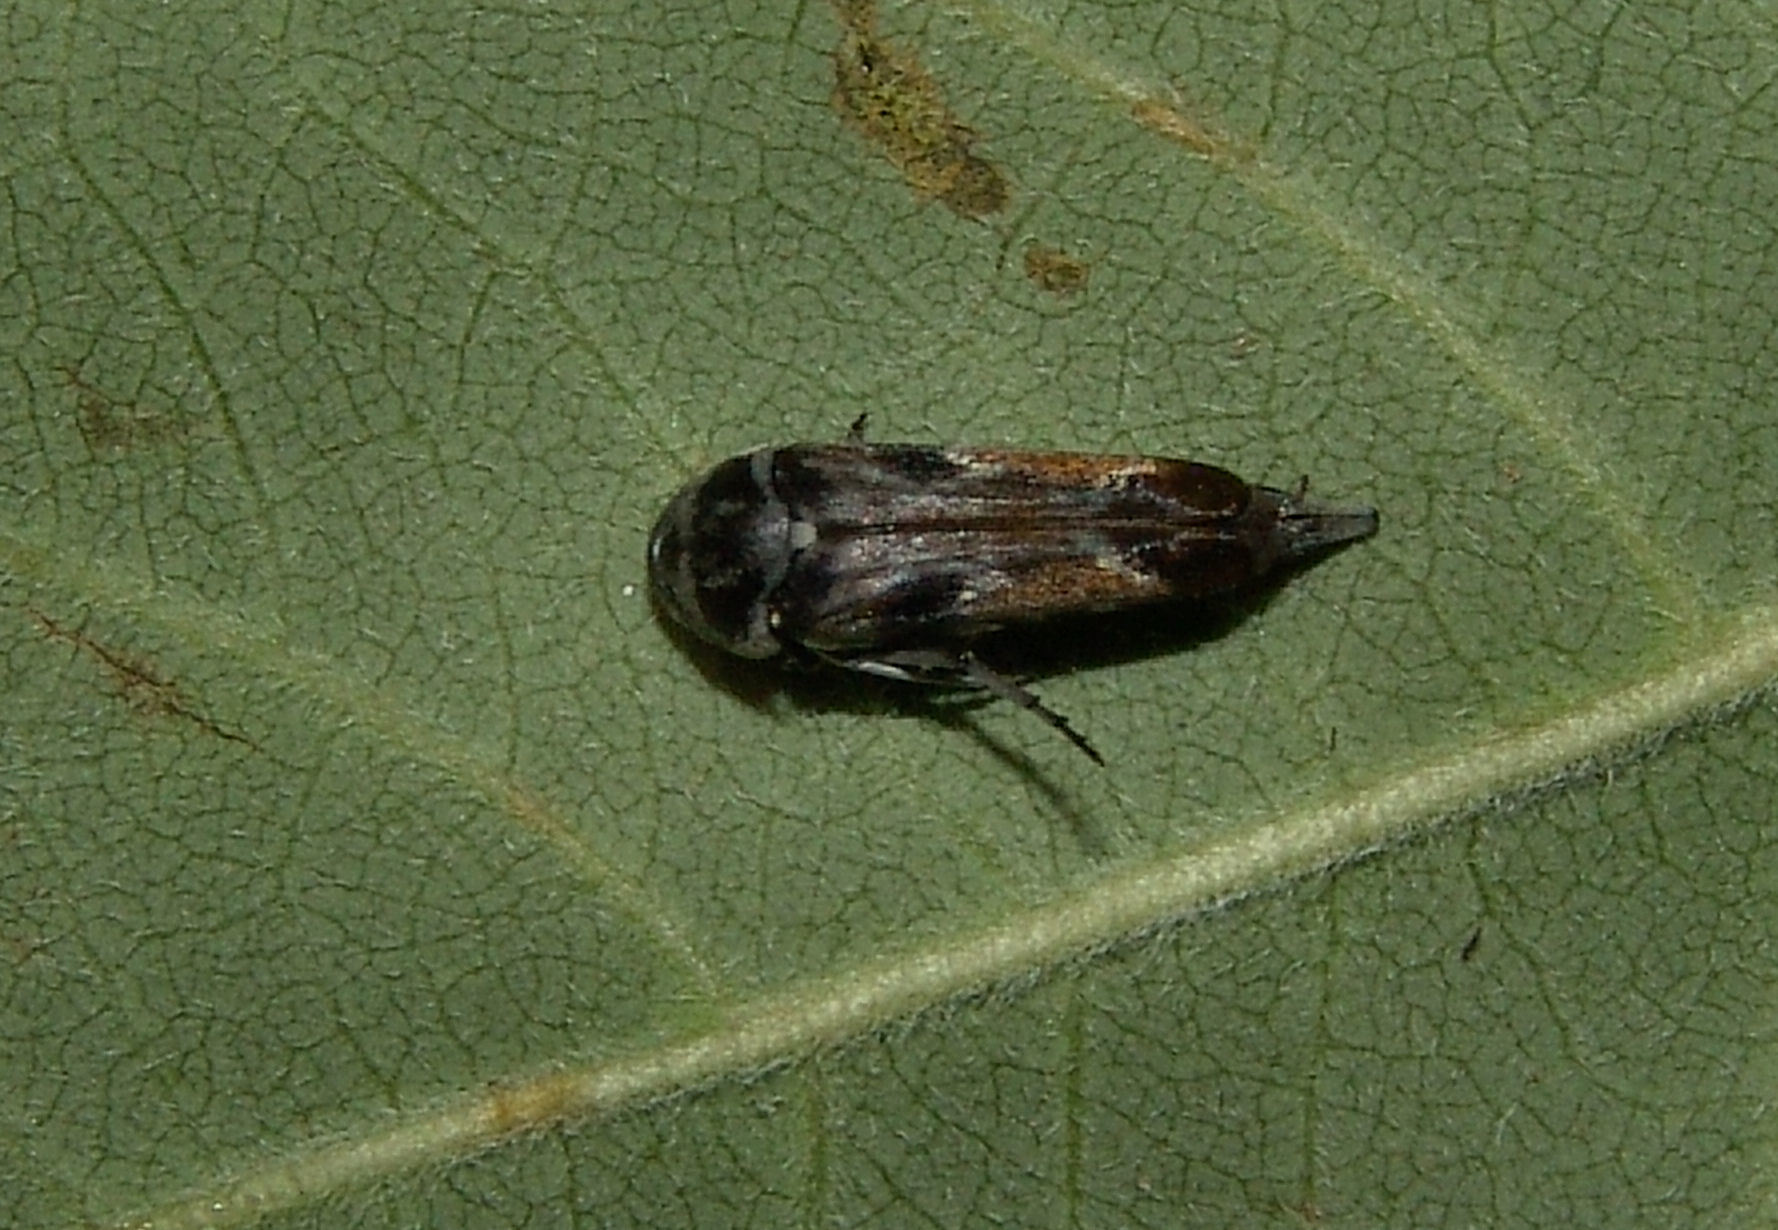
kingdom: Animalia
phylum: Arthropoda
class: Insecta
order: Coleoptera
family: Mordellidae
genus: Glipa
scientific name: Glipa hilaris
